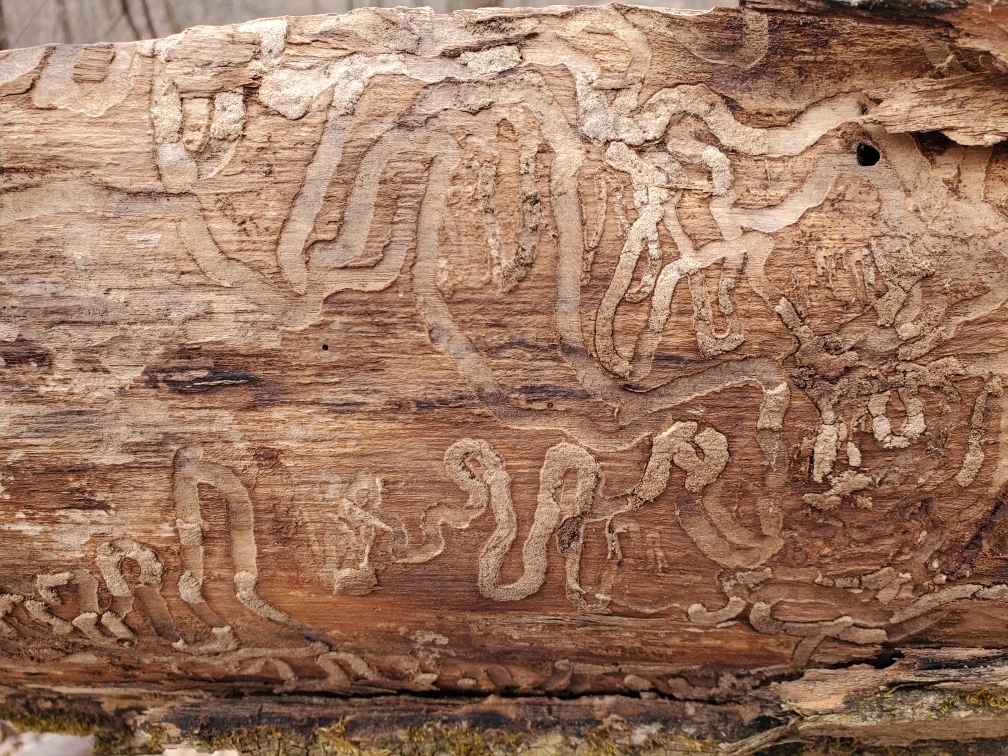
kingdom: Animalia
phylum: Arthropoda
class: Insecta
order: Coleoptera
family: Buprestidae
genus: Agrilus
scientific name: Agrilus planipennis
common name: Emerald ash borer
